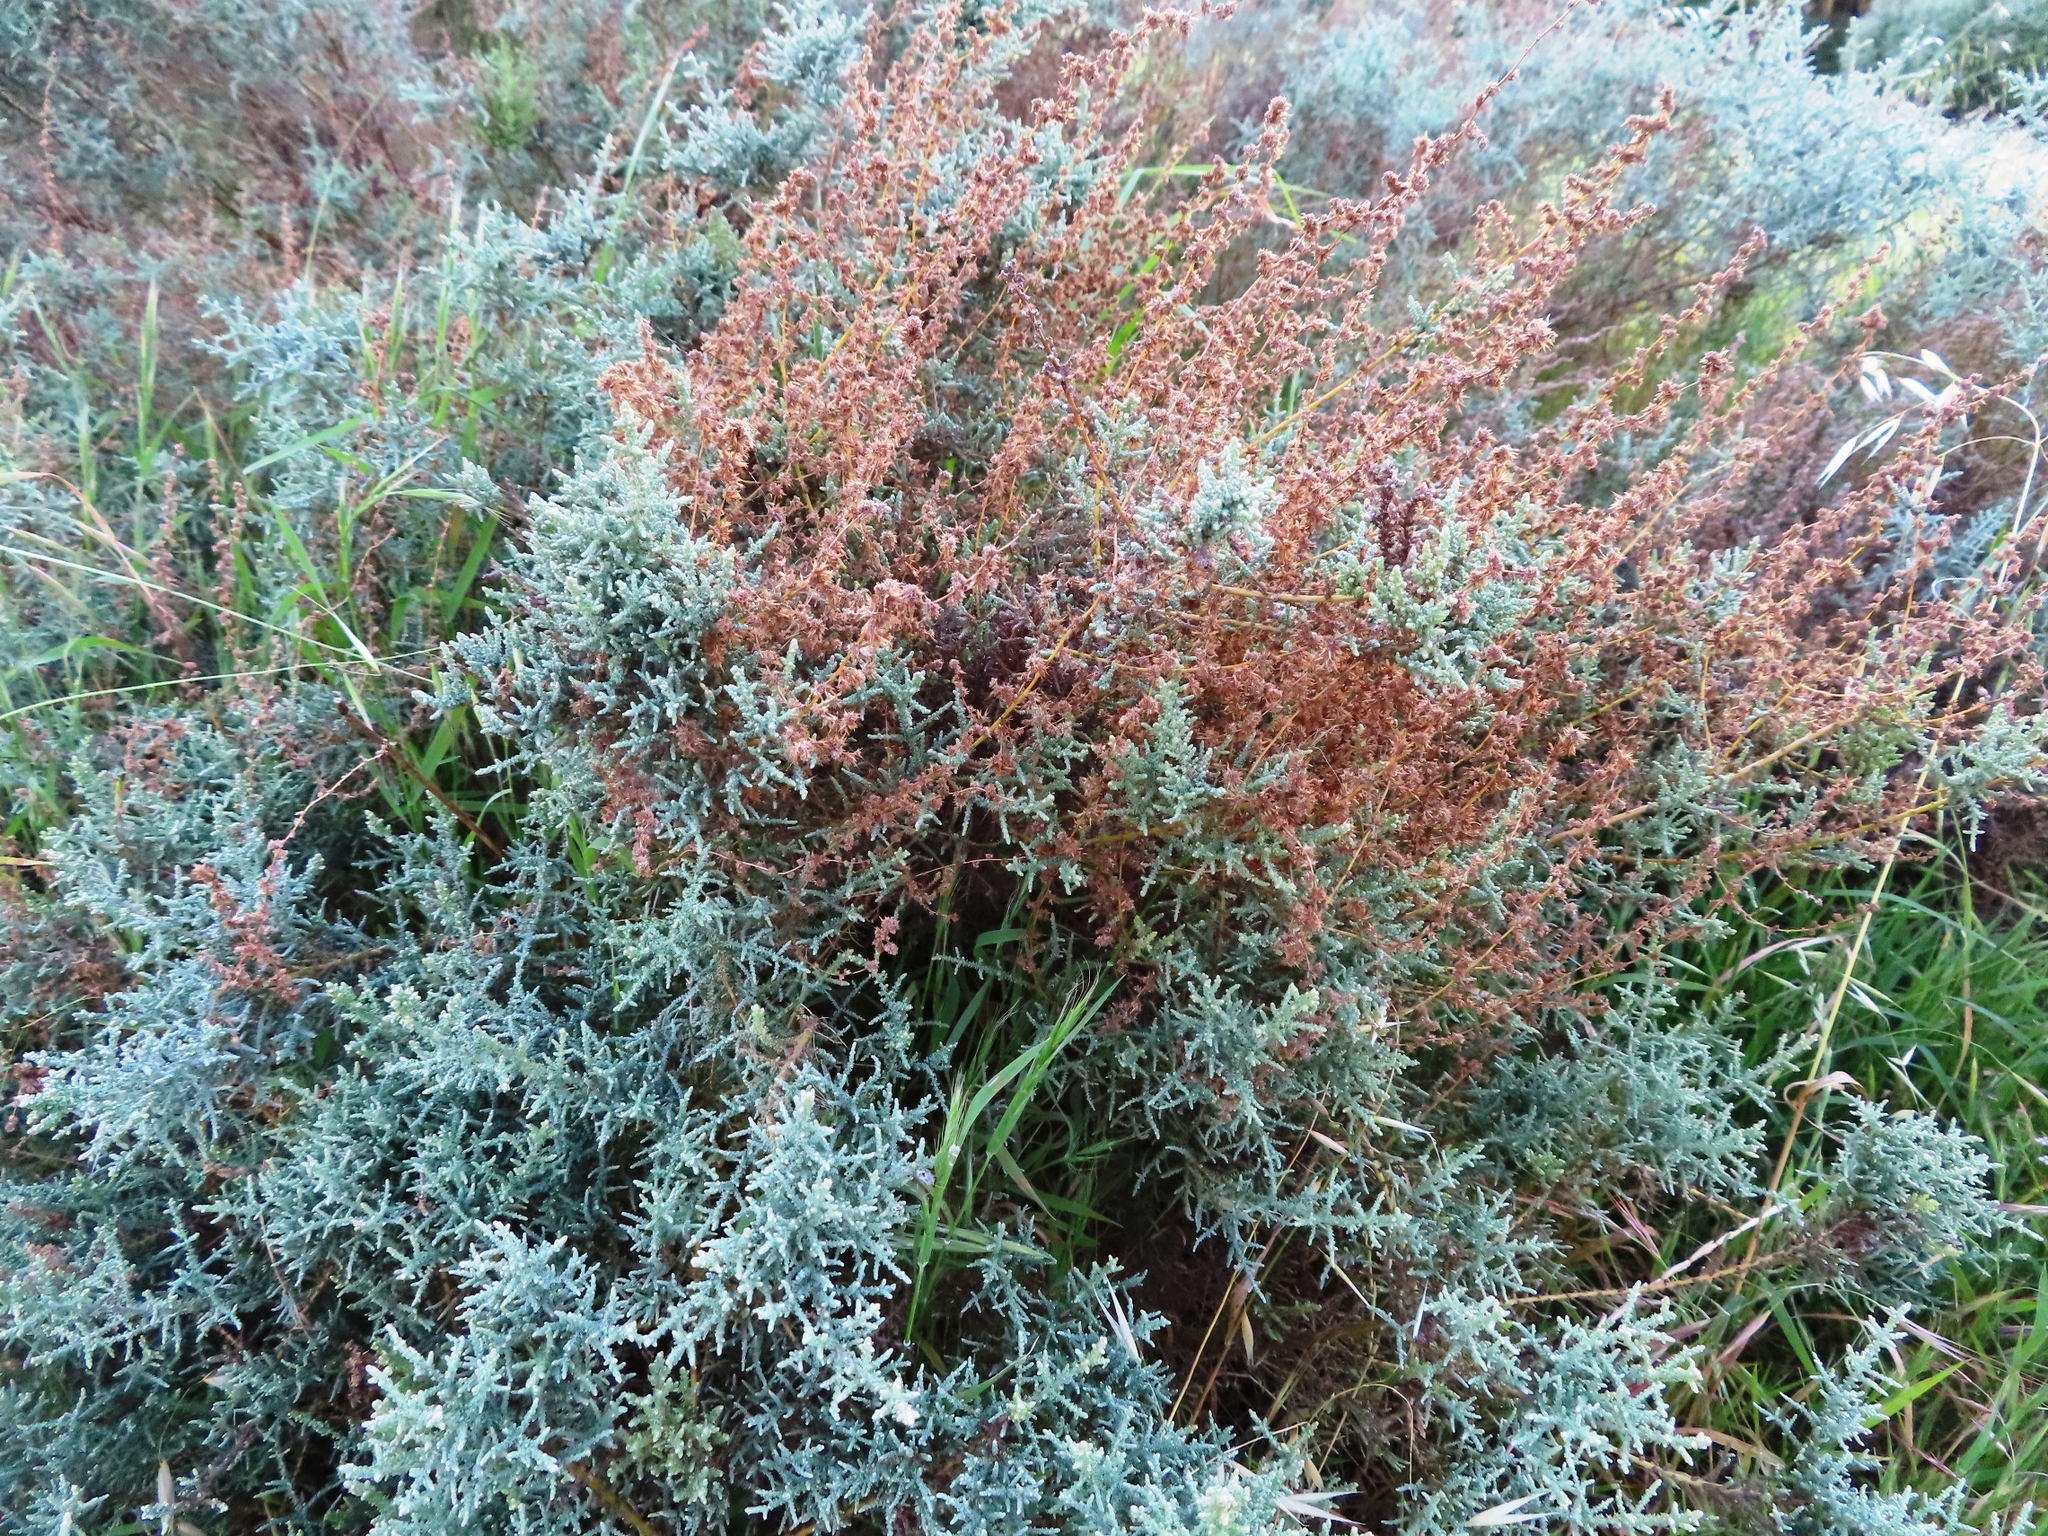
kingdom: Plantae
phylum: Tracheophyta
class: Magnoliopsida
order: Asterales
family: Asteraceae
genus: Seriphium
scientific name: Seriphium plumosum
